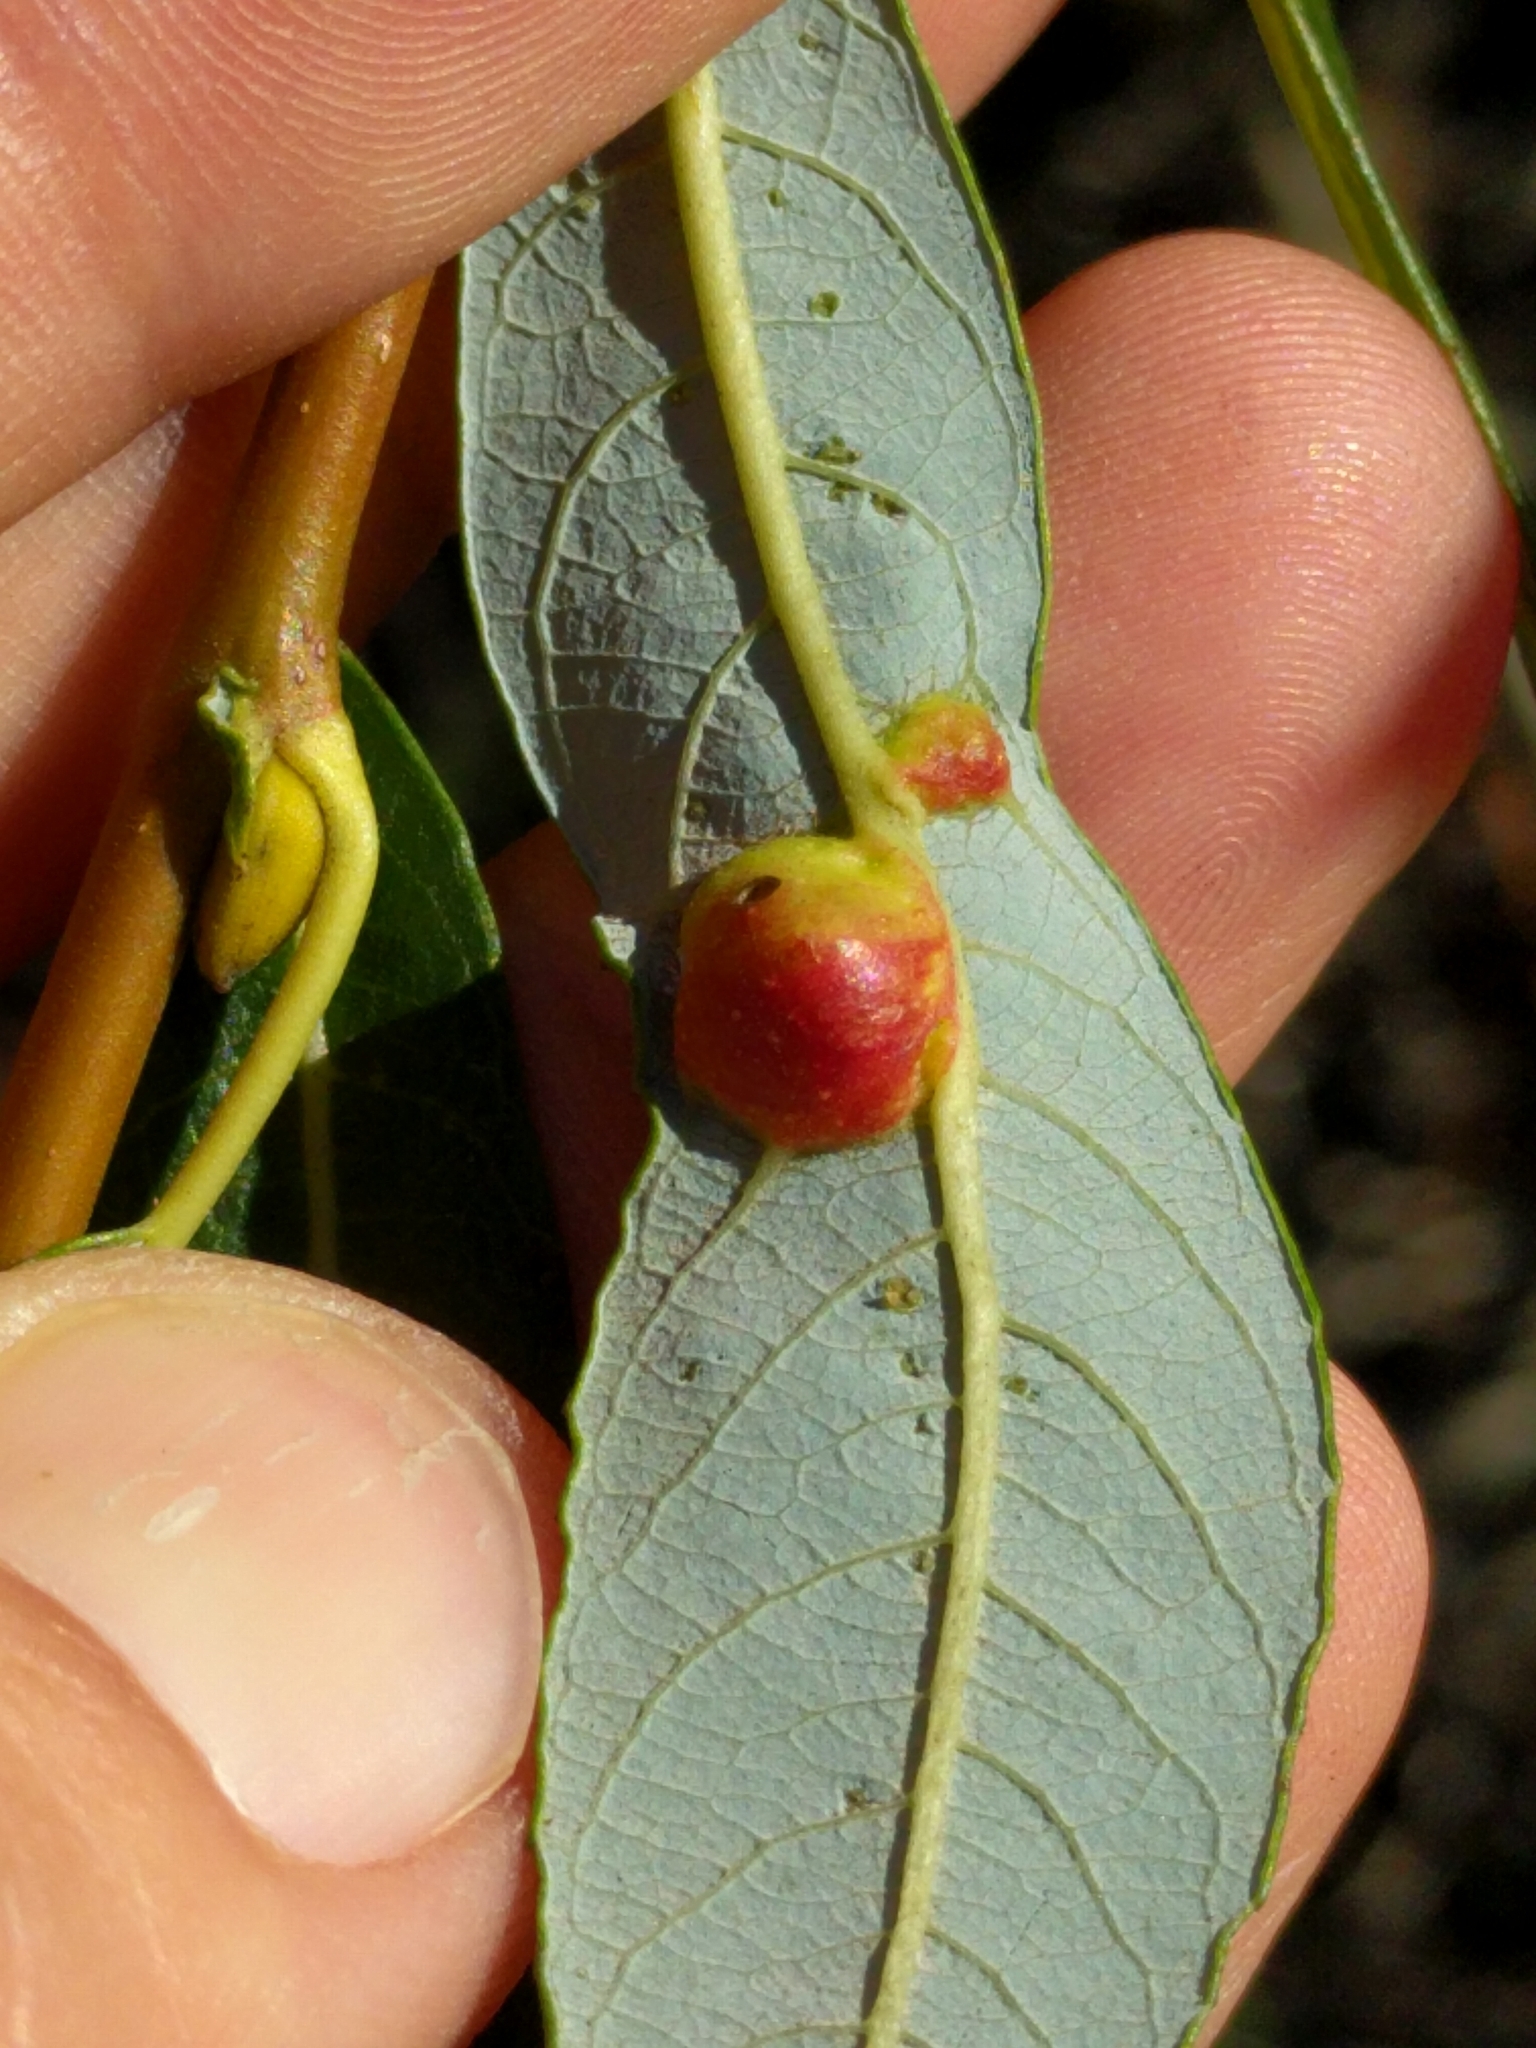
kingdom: Animalia
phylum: Arthropoda
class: Insecta
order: Hymenoptera
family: Tenthredinidae
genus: Euura
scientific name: Euura
